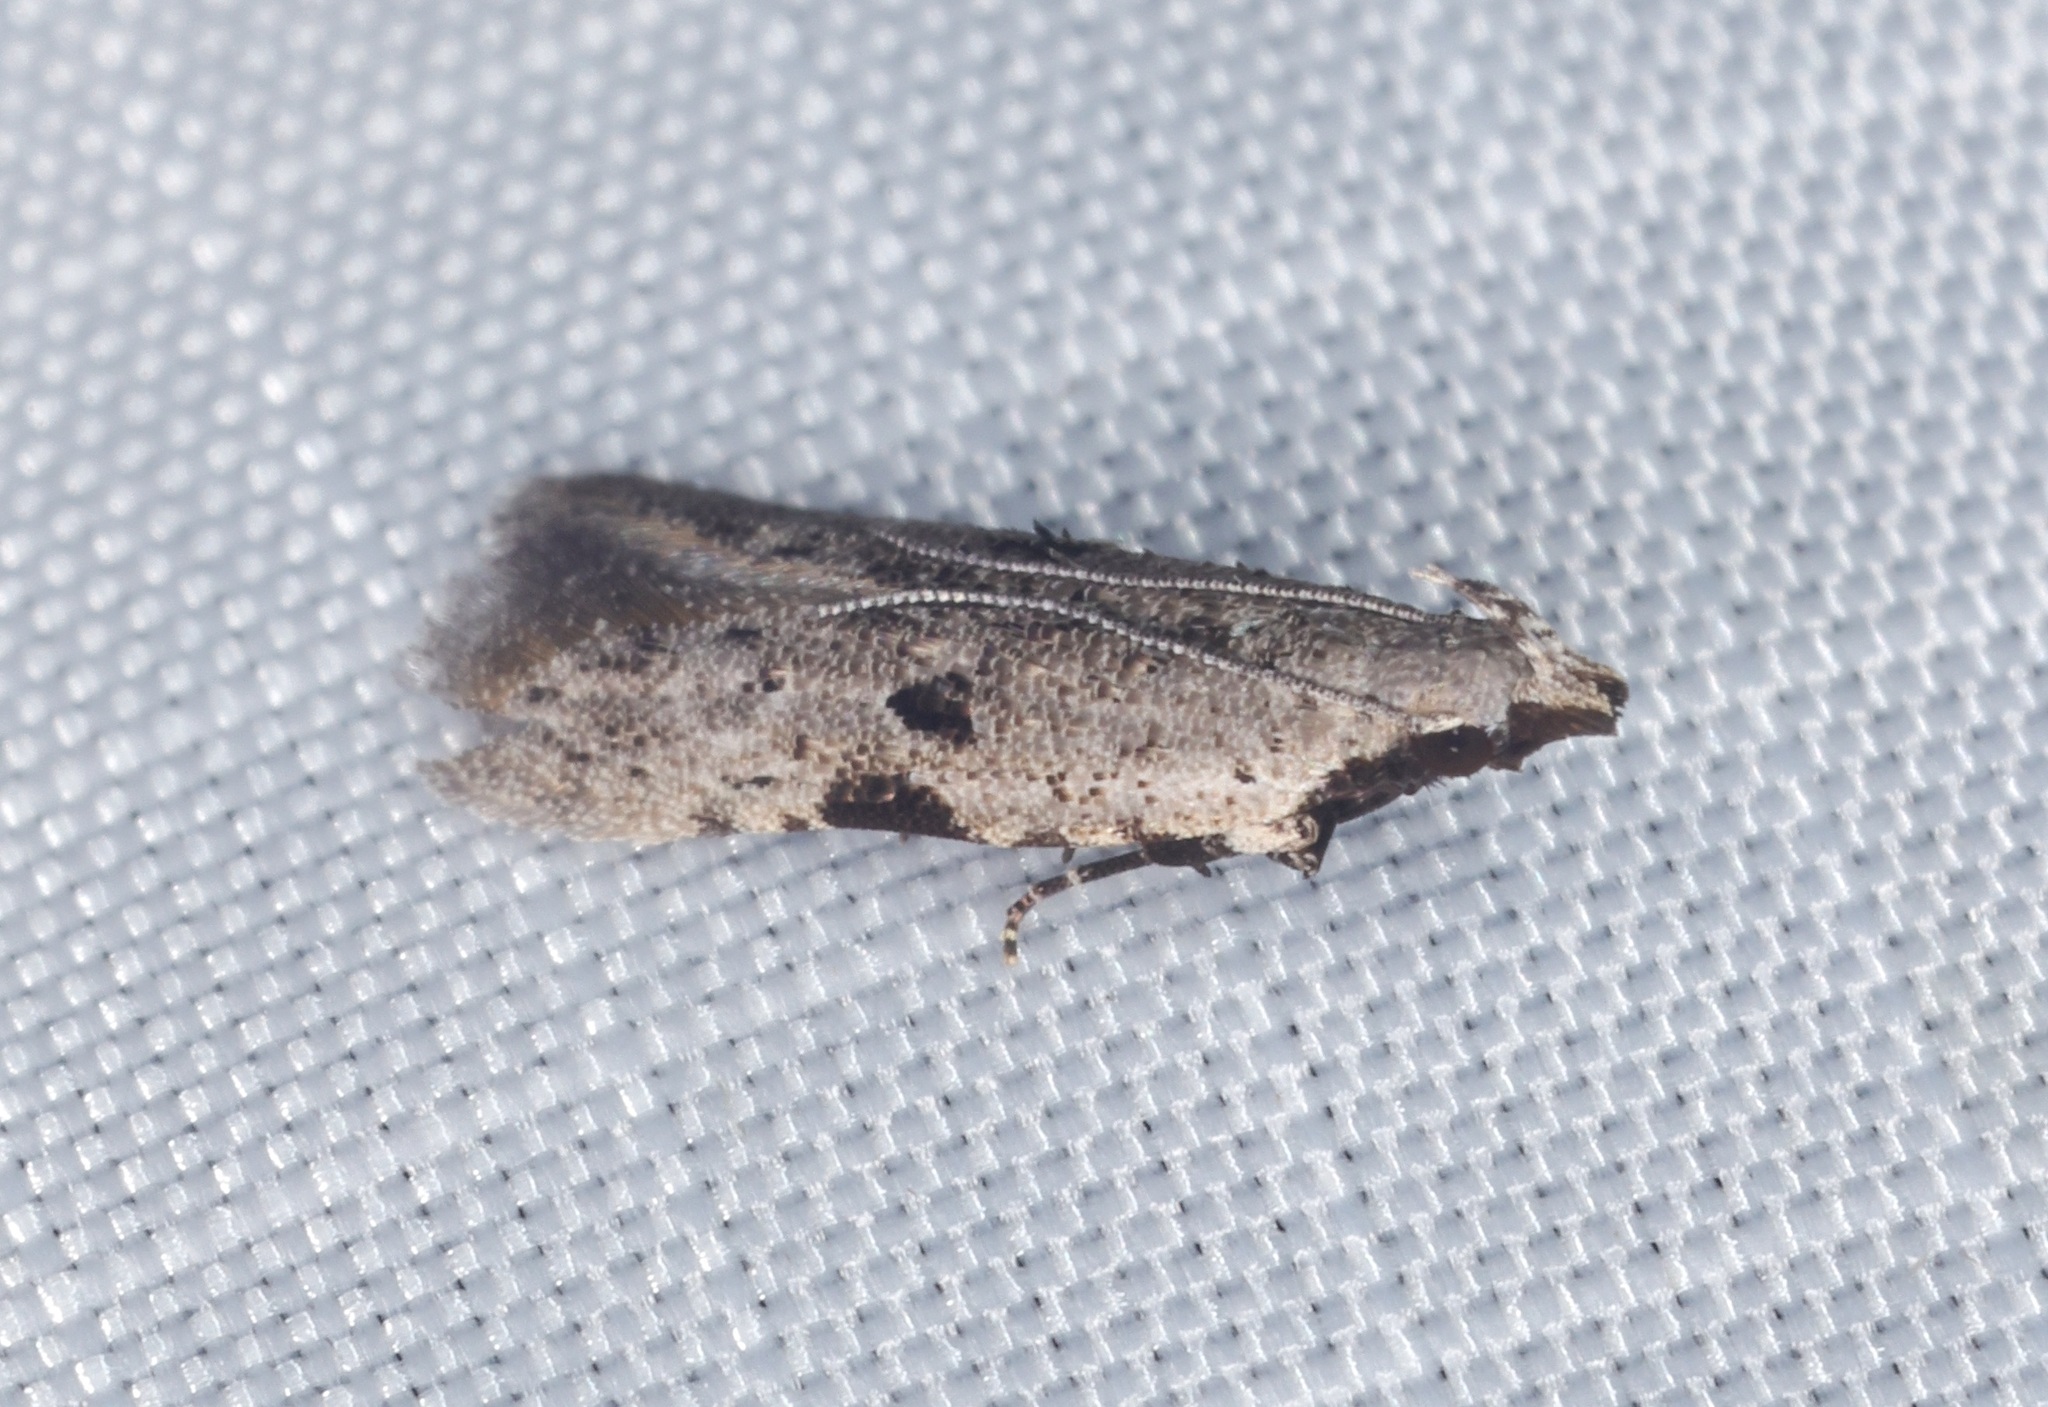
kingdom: Animalia
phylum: Arthropoda
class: Insecta
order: Lepidoptera
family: Gelechiidae
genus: Anarsia
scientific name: Anarsia patulella
